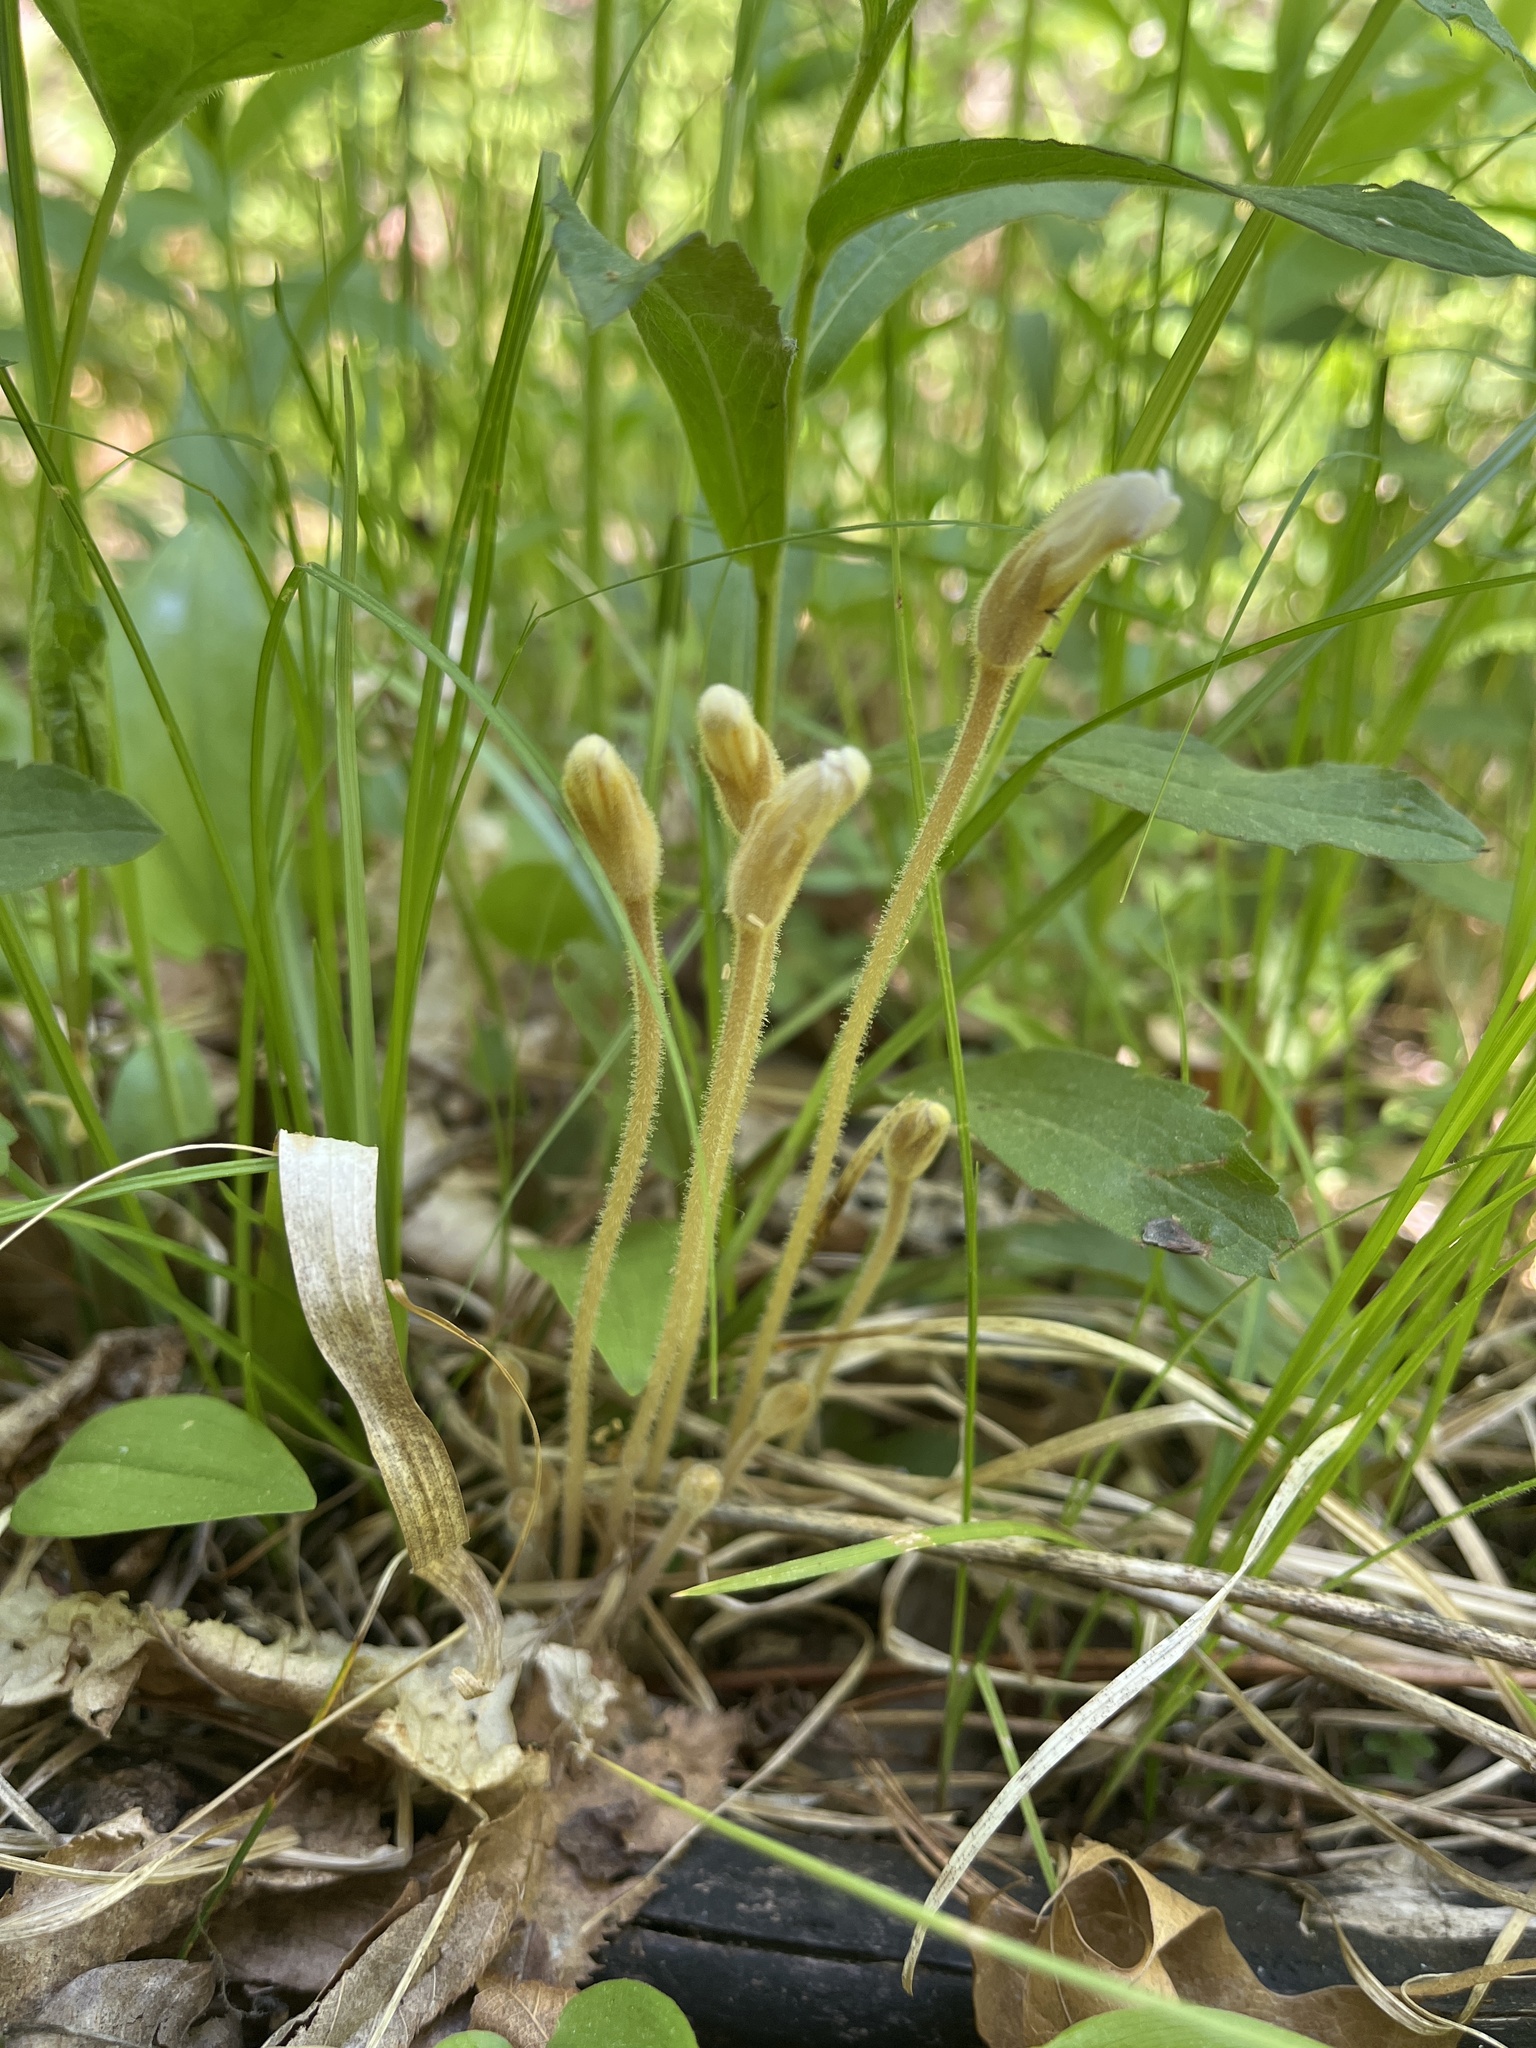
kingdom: Plantae
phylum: Tracheophyta
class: Magnoliopsida
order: Lamiales
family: Orobanchaceae
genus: Aphyllon
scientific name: Aphyllon uniflorum
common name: One-flowered broomrape
